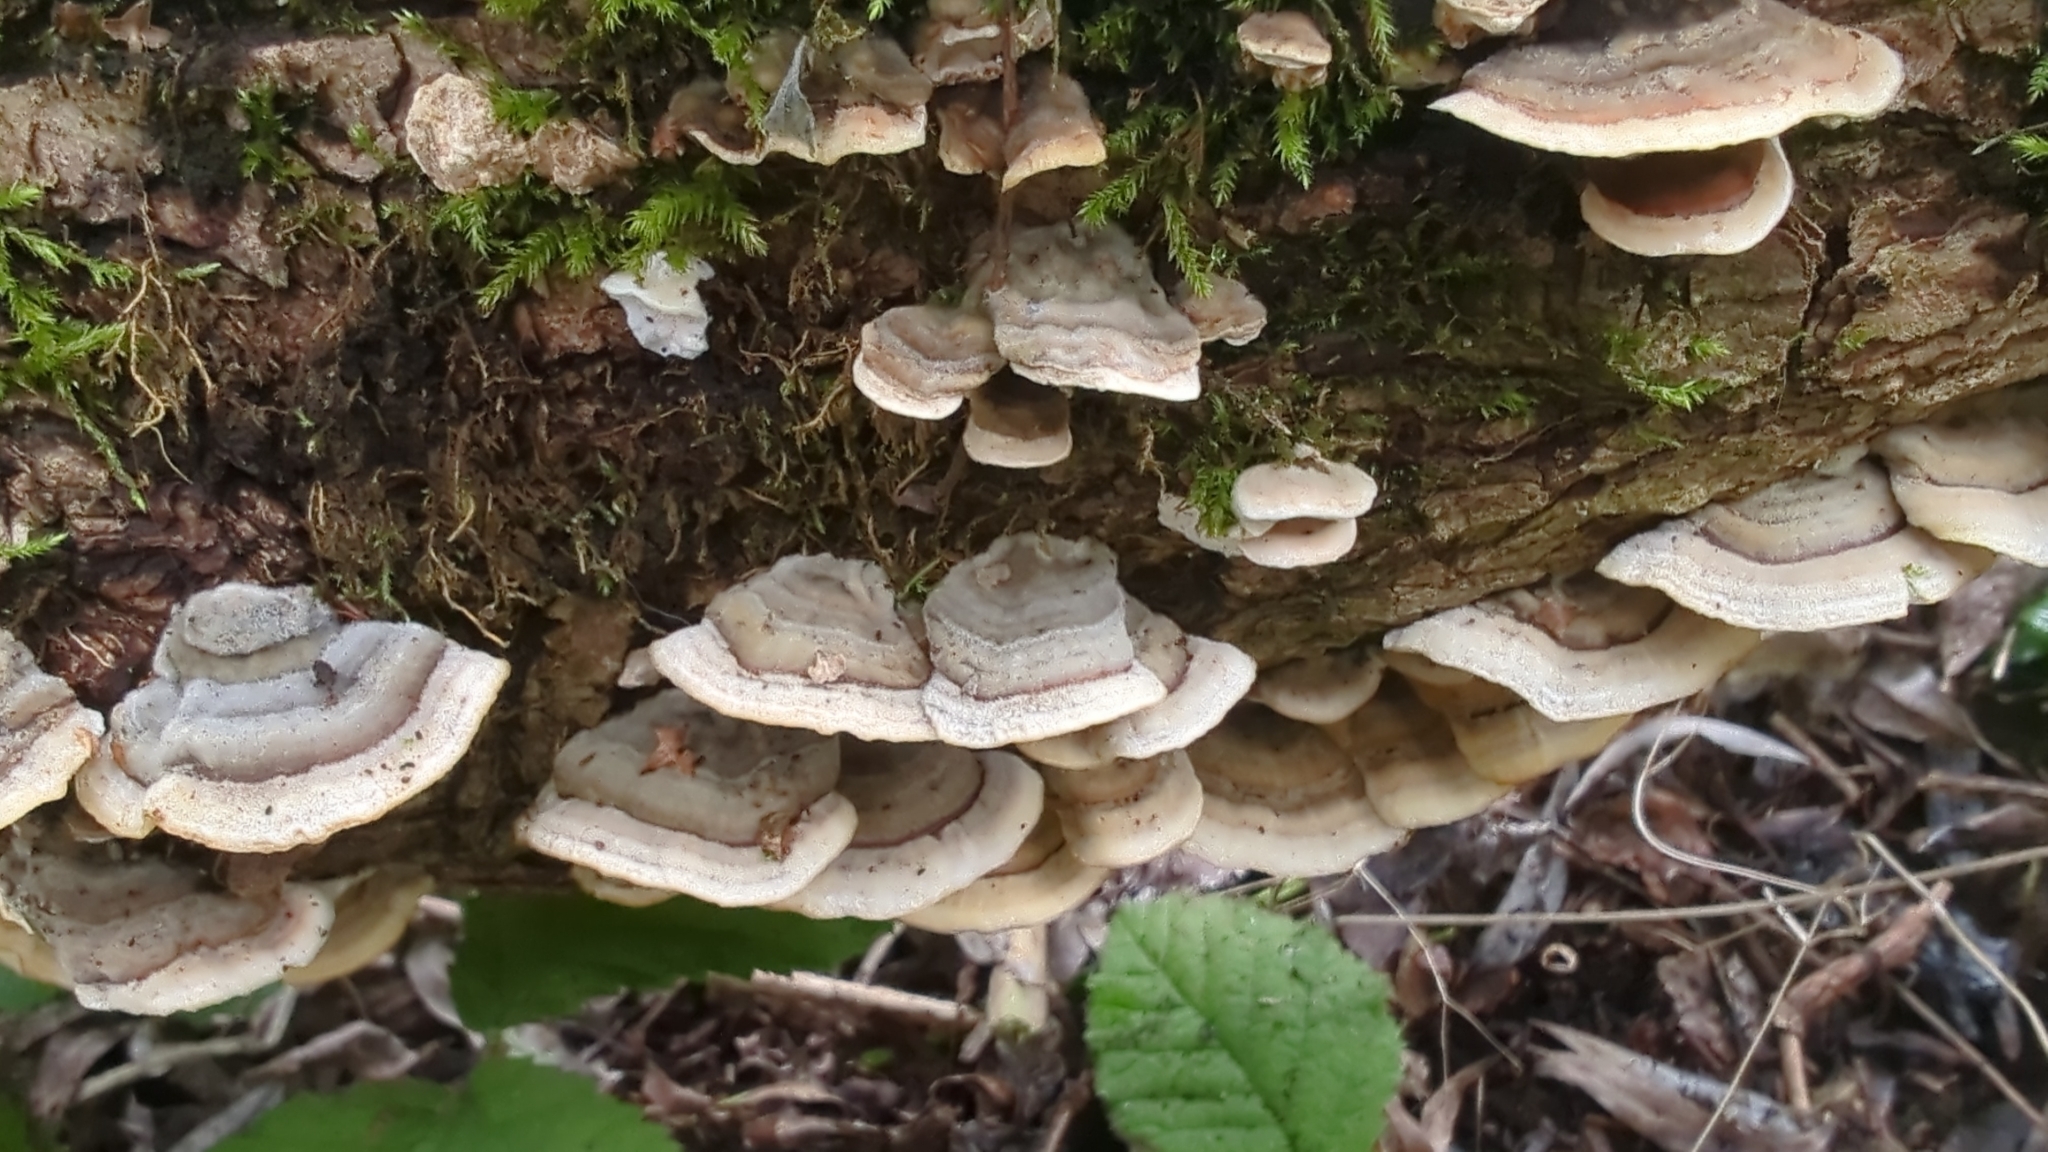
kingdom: Fungi
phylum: Basidiomycota
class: Agaricomycetes
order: Polyporales
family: Polyporaceae
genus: Trametes
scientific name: Trametes versicolor
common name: Turkeytail
